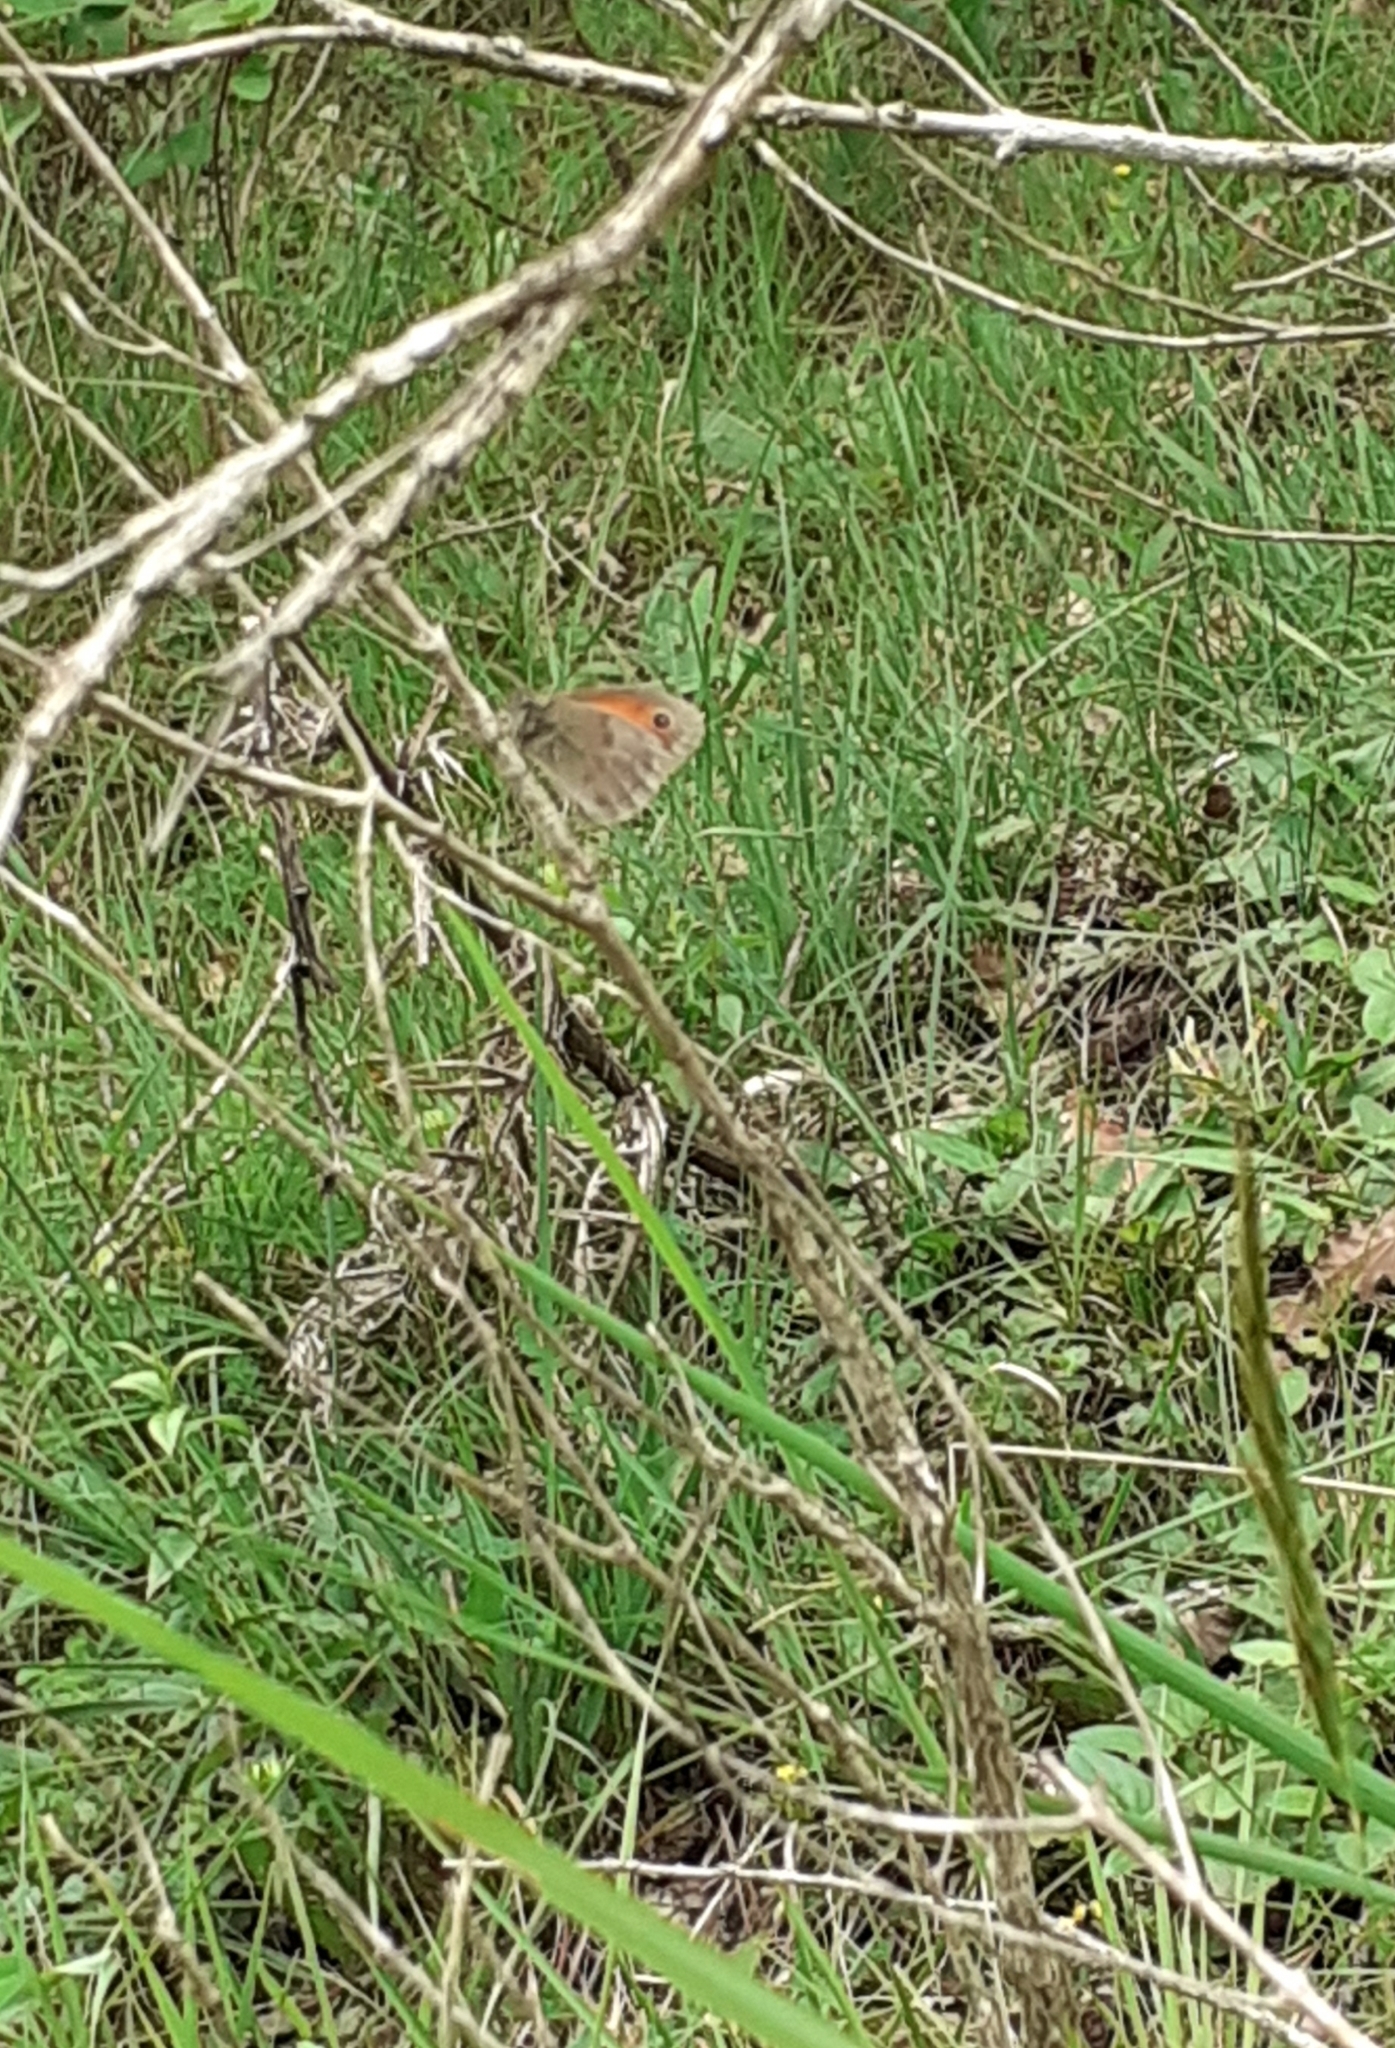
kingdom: Animalia
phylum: Arthropoda
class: Insecta
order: Lepidoptera
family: Nymphalidae
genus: Coenonympha
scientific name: Coenonympha pamphilus
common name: Small heath
